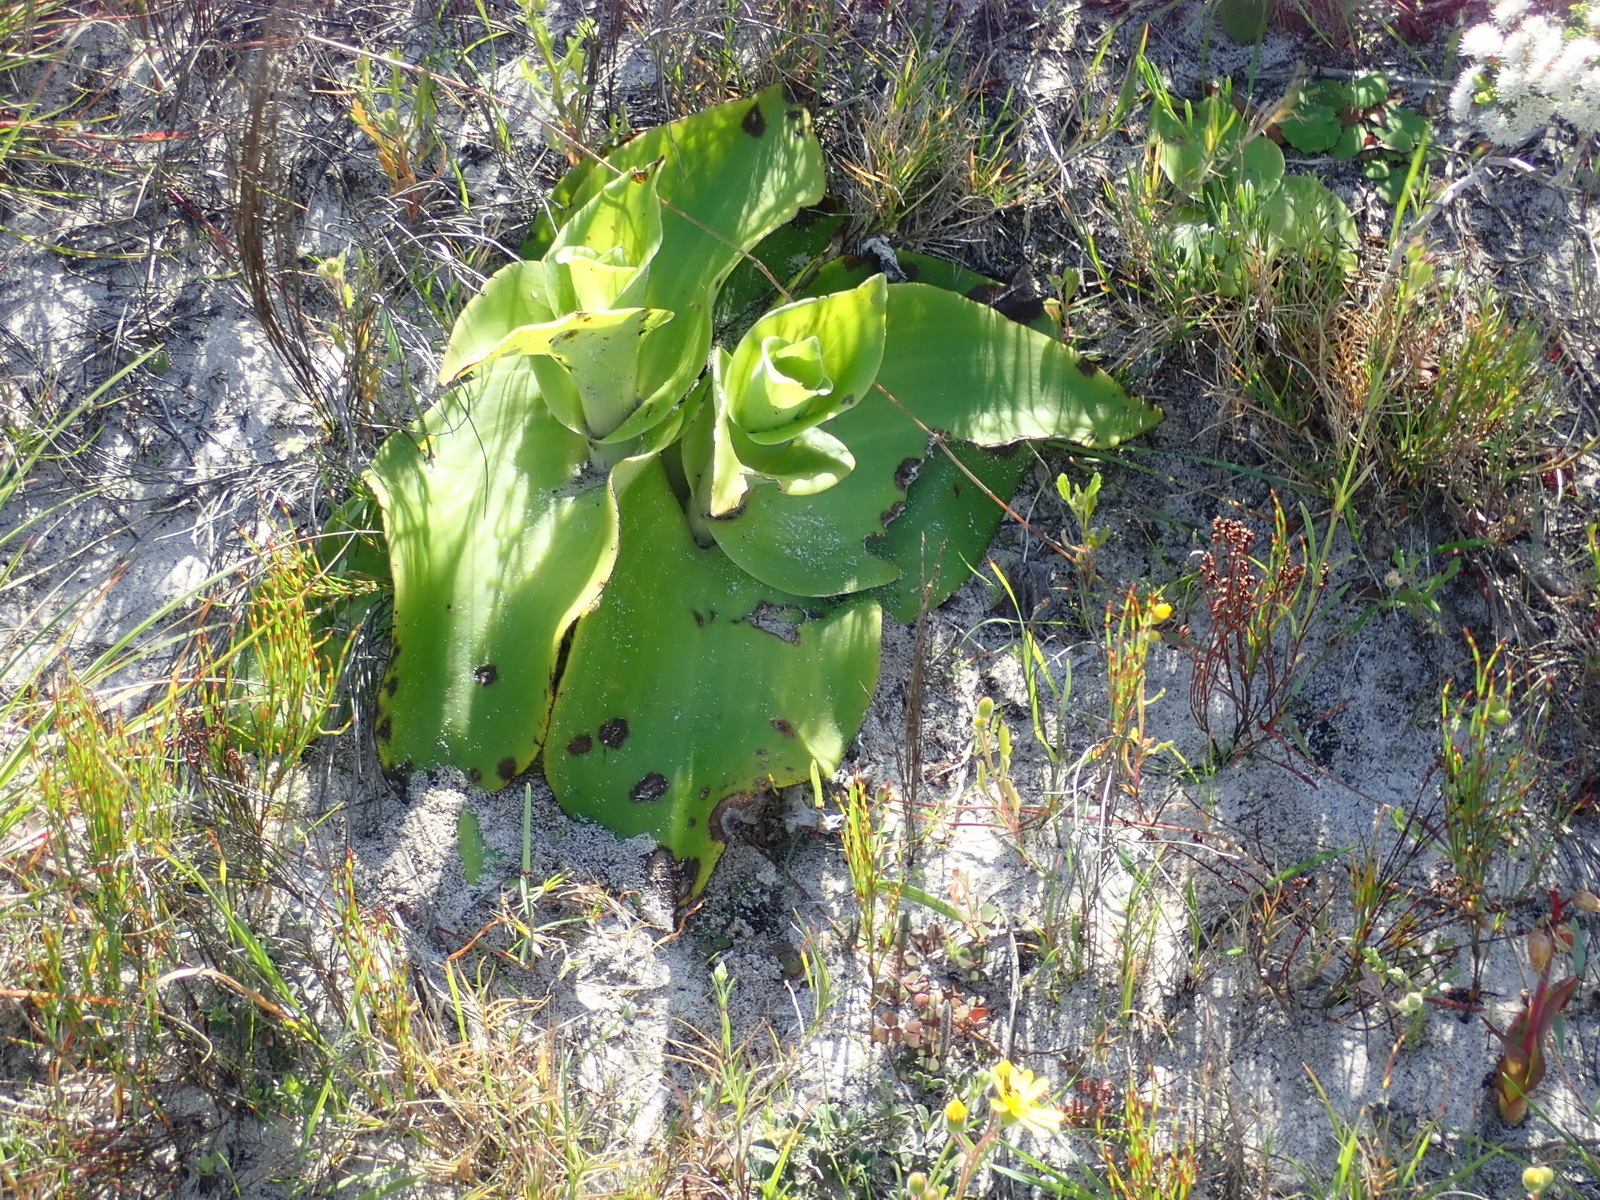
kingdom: Plantae
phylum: Tracheophyta
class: Liliopsida
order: Asparagales
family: Orchidaceae
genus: Satyrium
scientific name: Satyrium carneum
